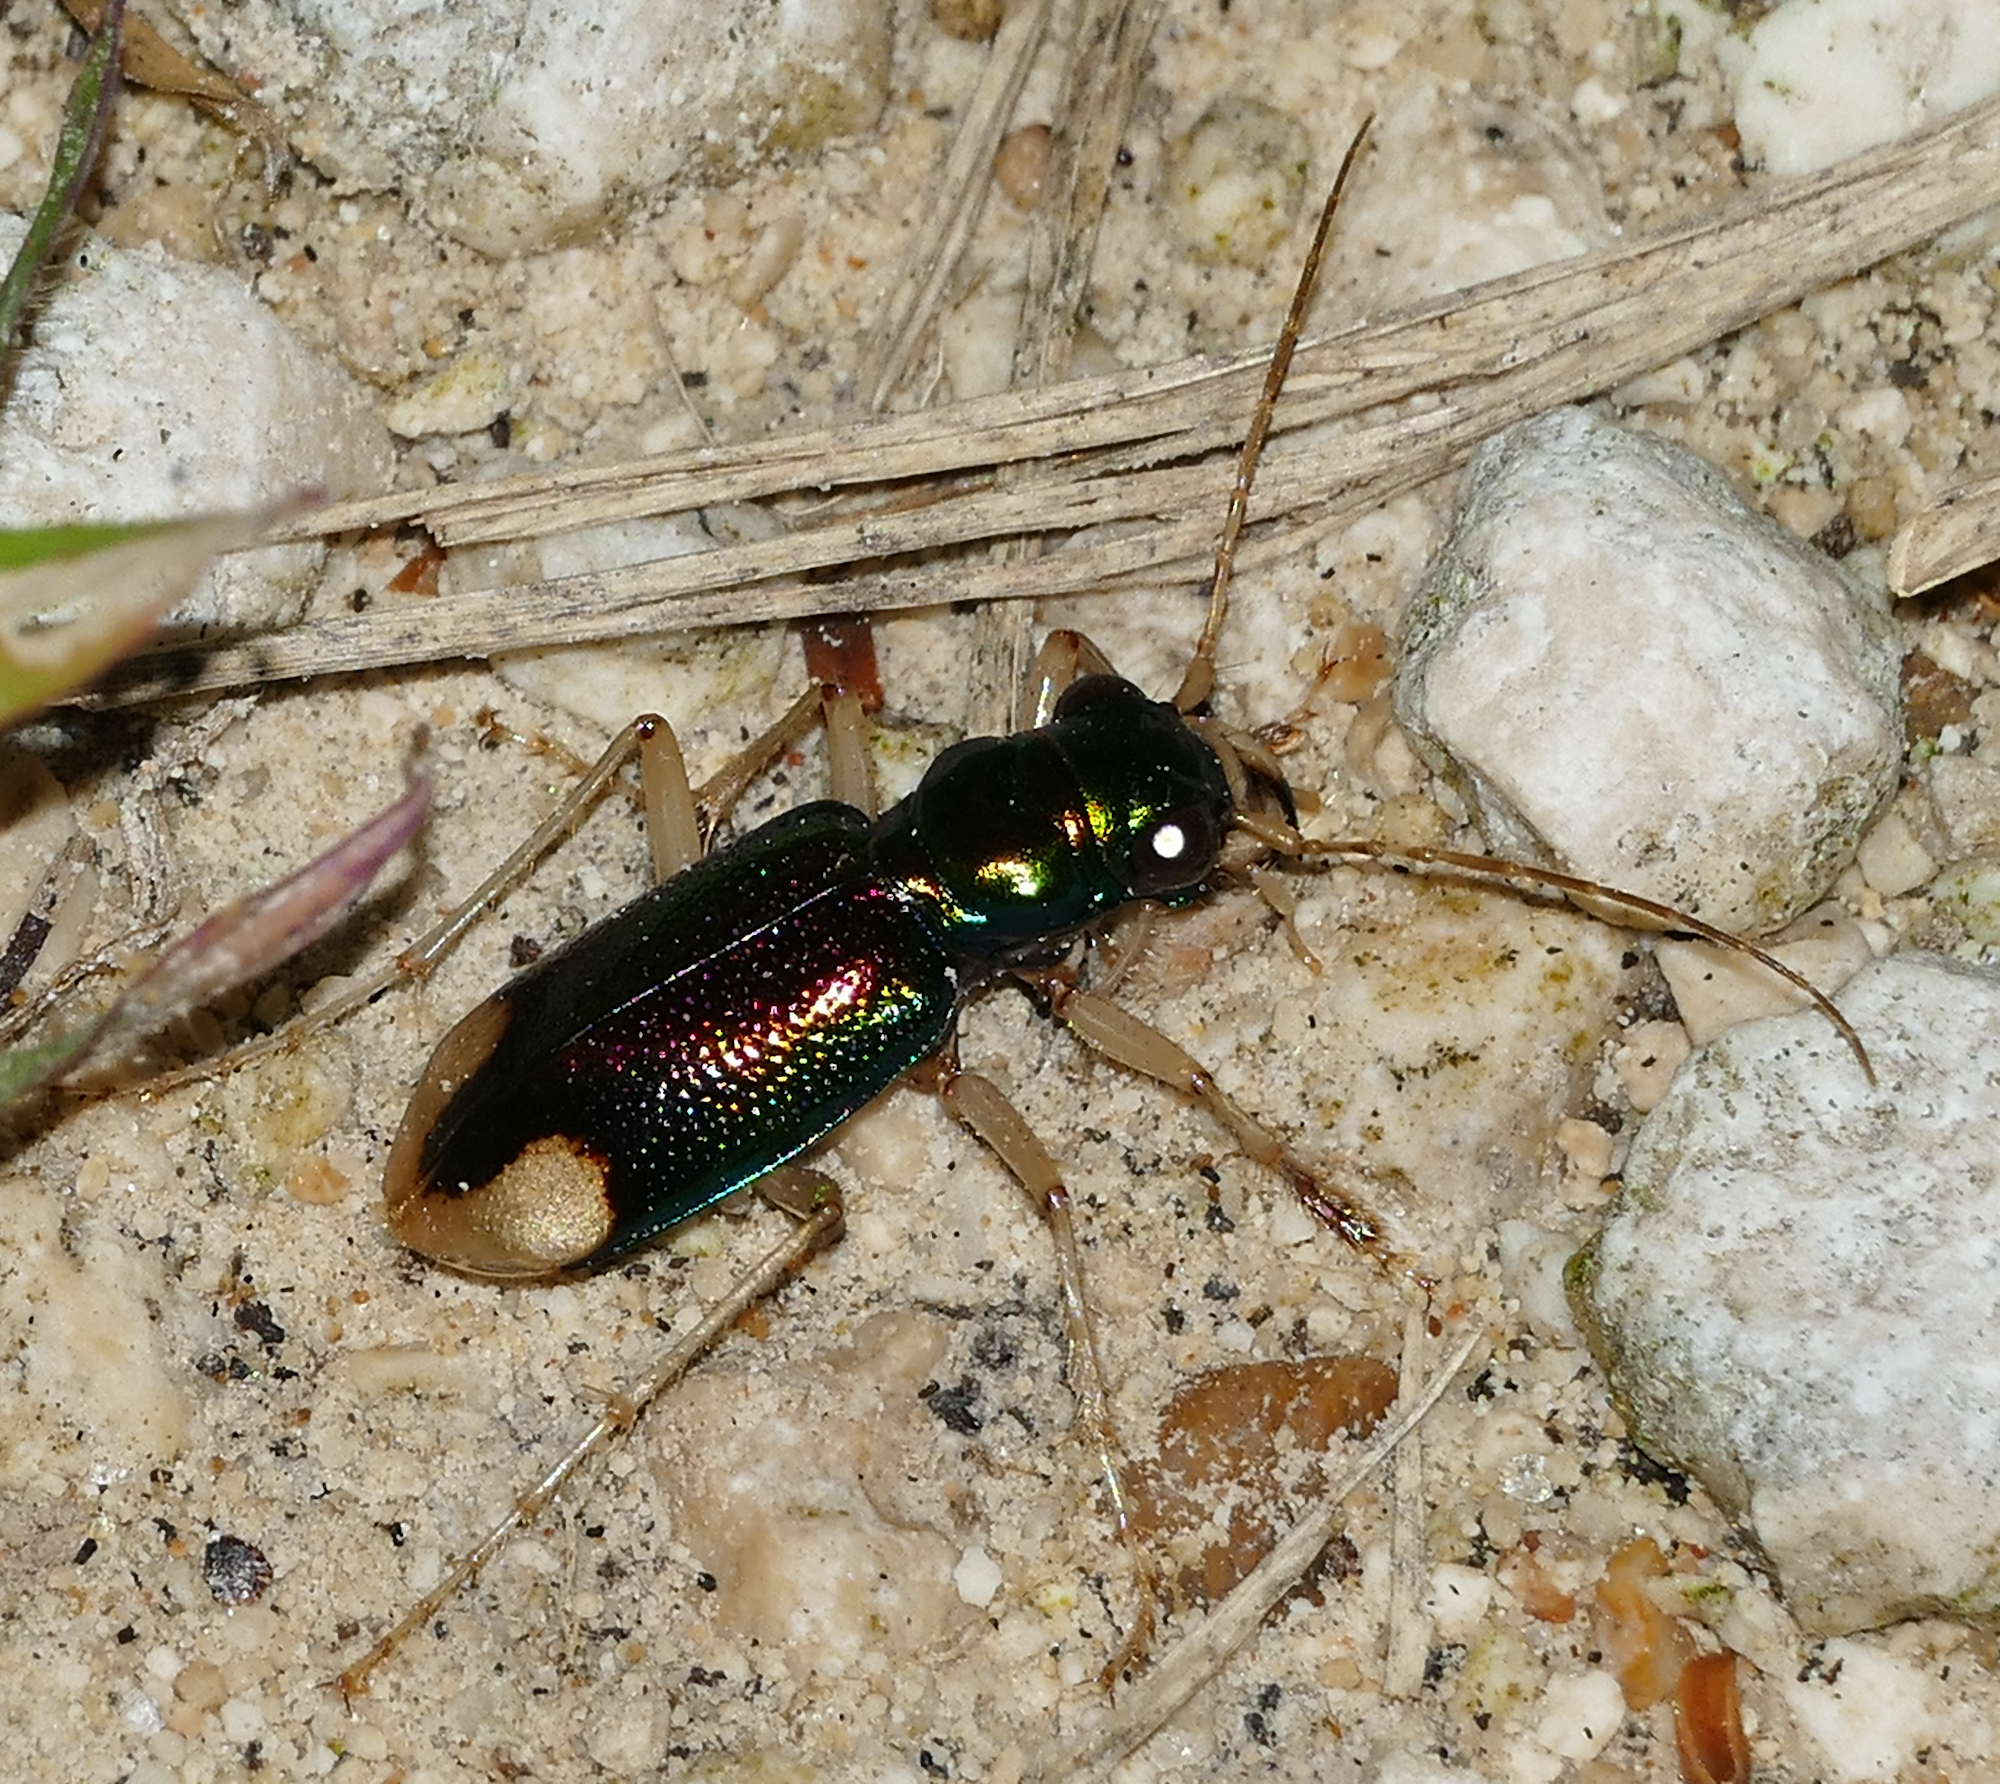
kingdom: Animalia
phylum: Arthropoda
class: Insecta
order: Coleoptera
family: Carabidae
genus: Tetracha
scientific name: Tetracha carolina
